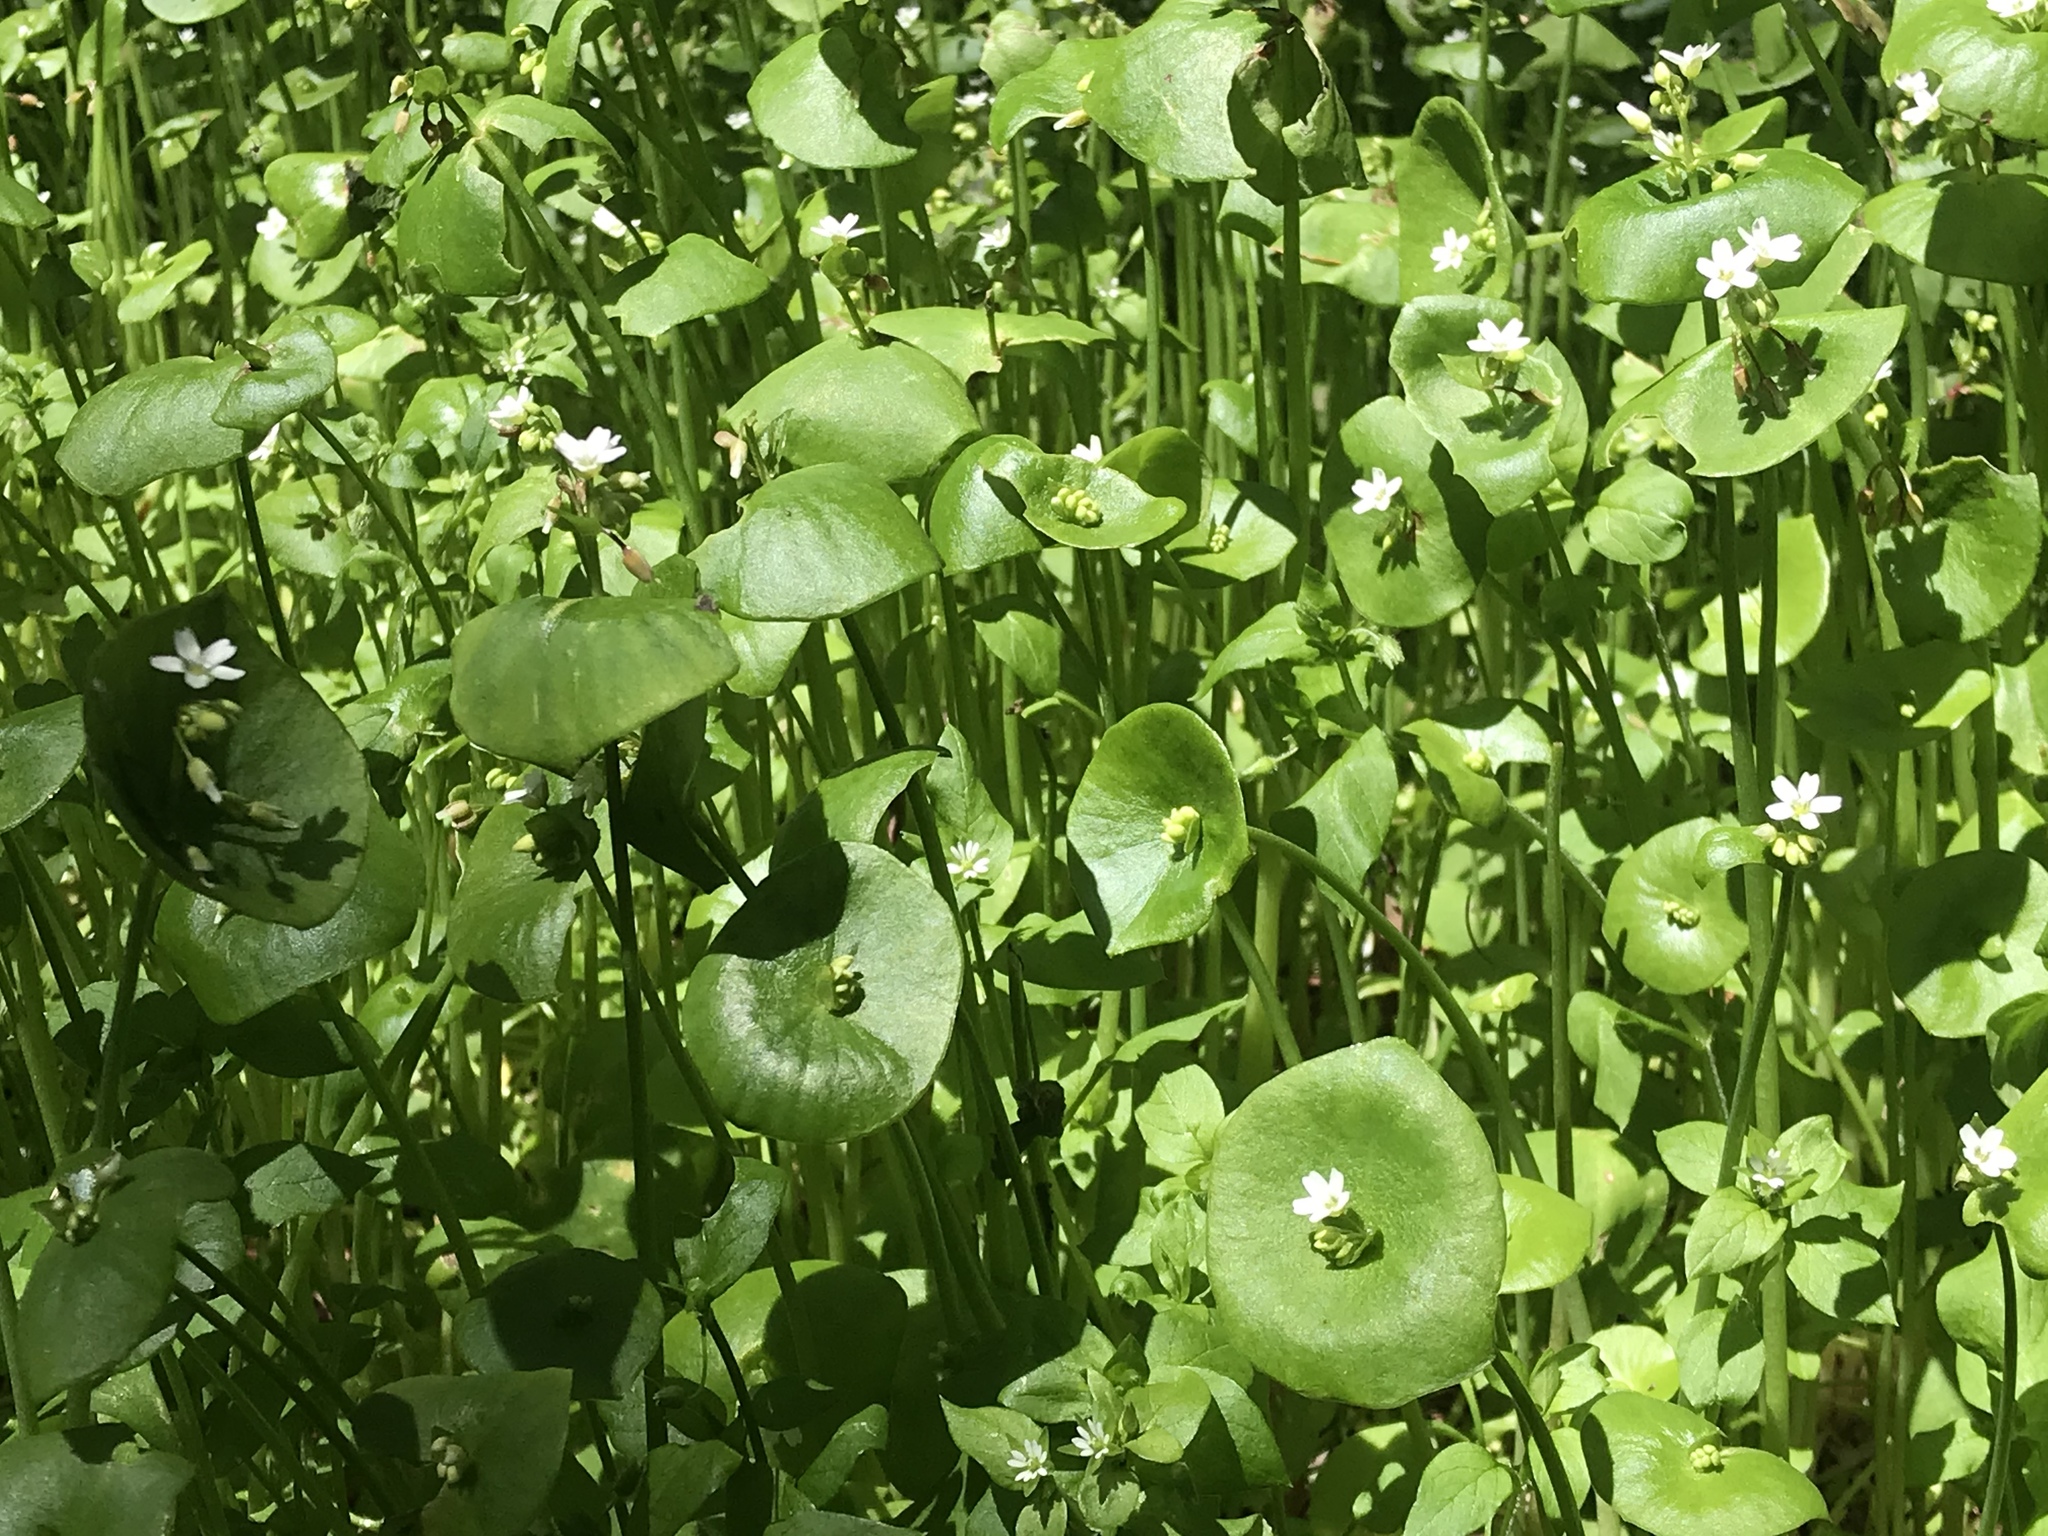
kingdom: Plantae
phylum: Tracheophyta
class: Magnoliopsida
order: Caryophyllales
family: Montiaceae
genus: Claytonia
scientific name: Claytonia perfoliata
